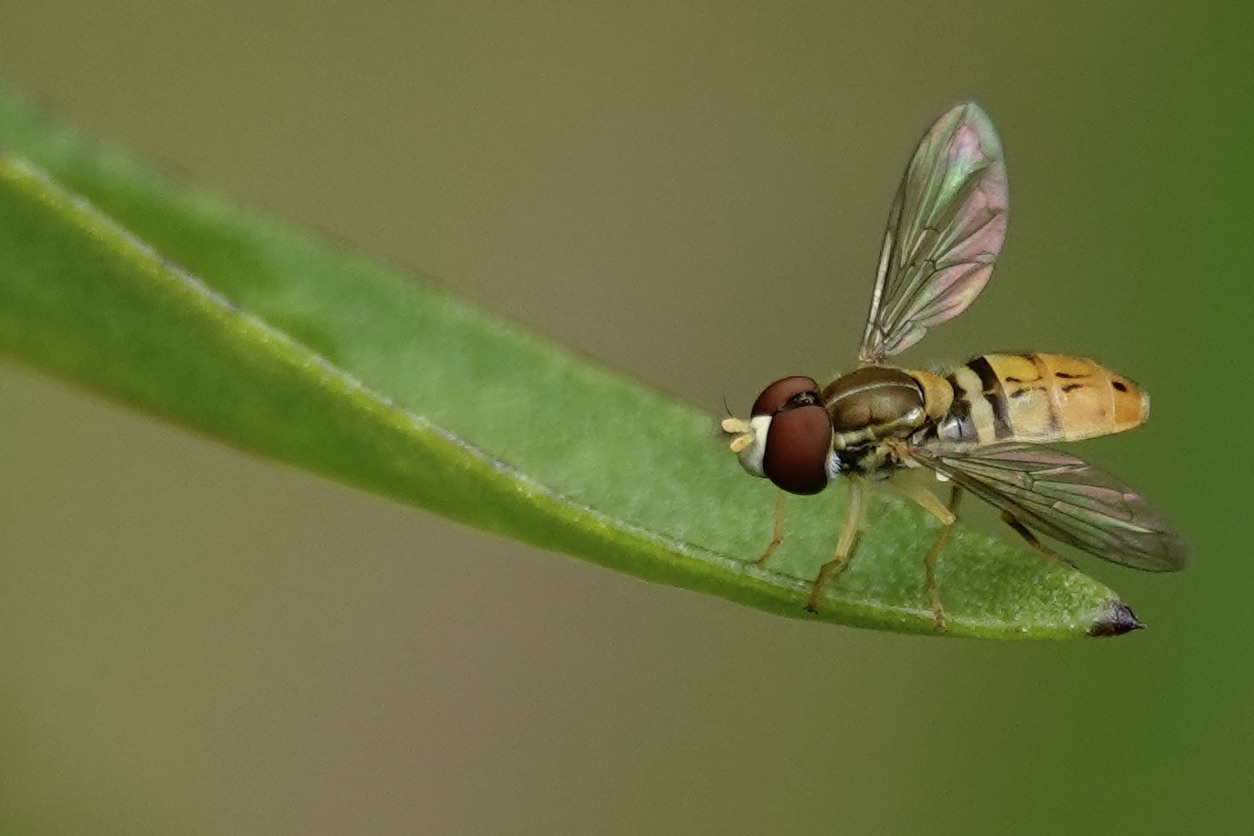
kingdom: Animalia
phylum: Arthropoda
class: Insecta
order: Diptera
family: Syrphidae
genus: Toxomerus
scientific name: Toxomerus marginatus
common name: Syrphid fly
